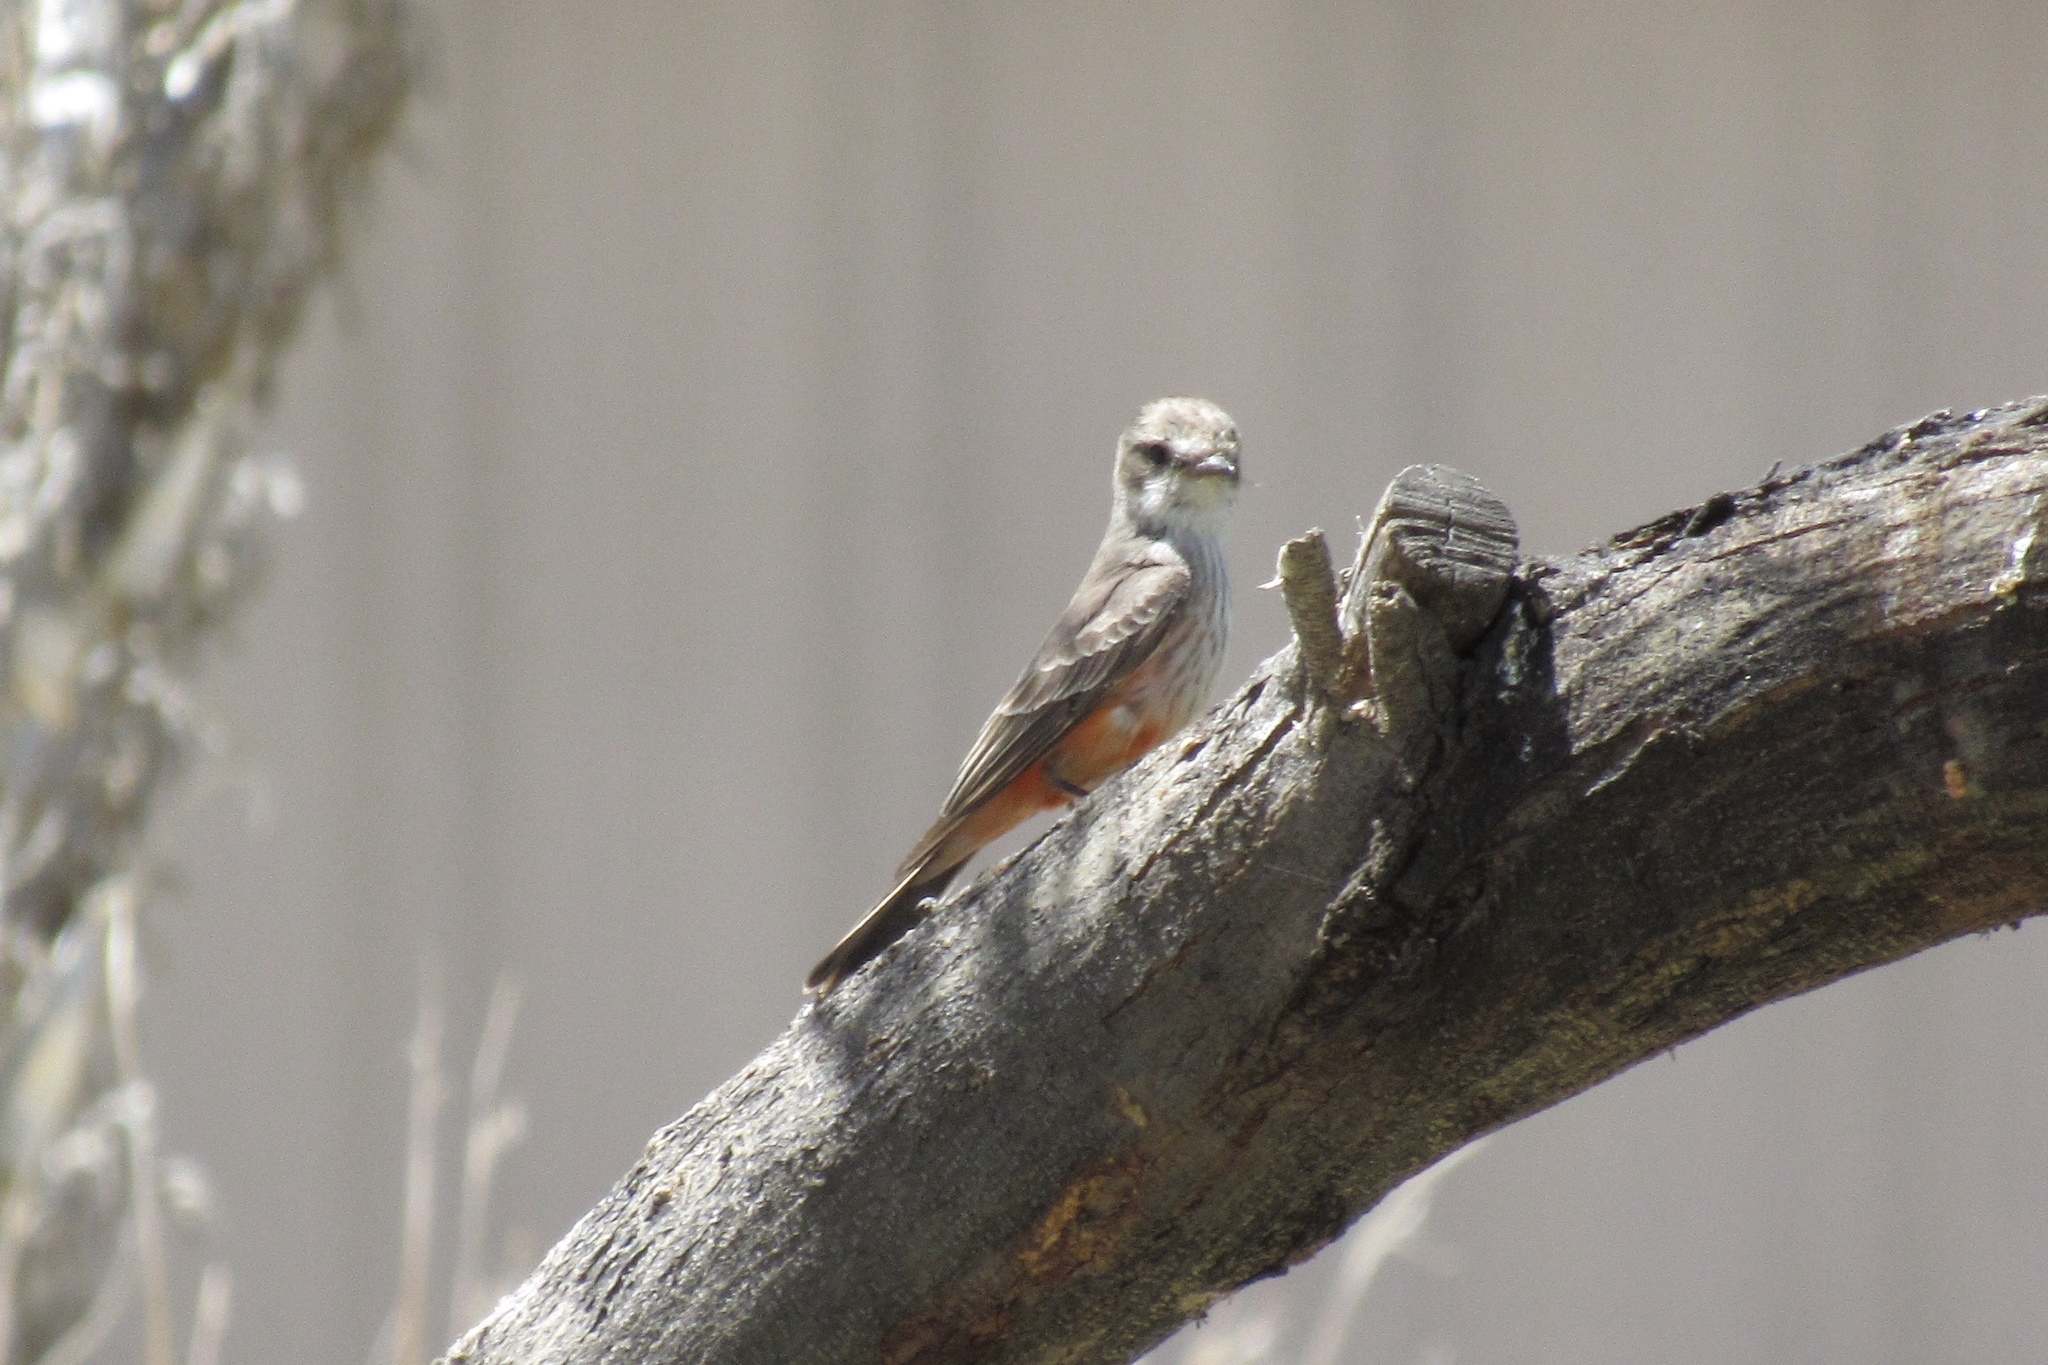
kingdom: Animalia
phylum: Chordata
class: Aves
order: Passeriformes
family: Tyrannidae
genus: Pyrocephalus
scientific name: Pyrocephalus rubinus
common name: Vermilion flycatcher
